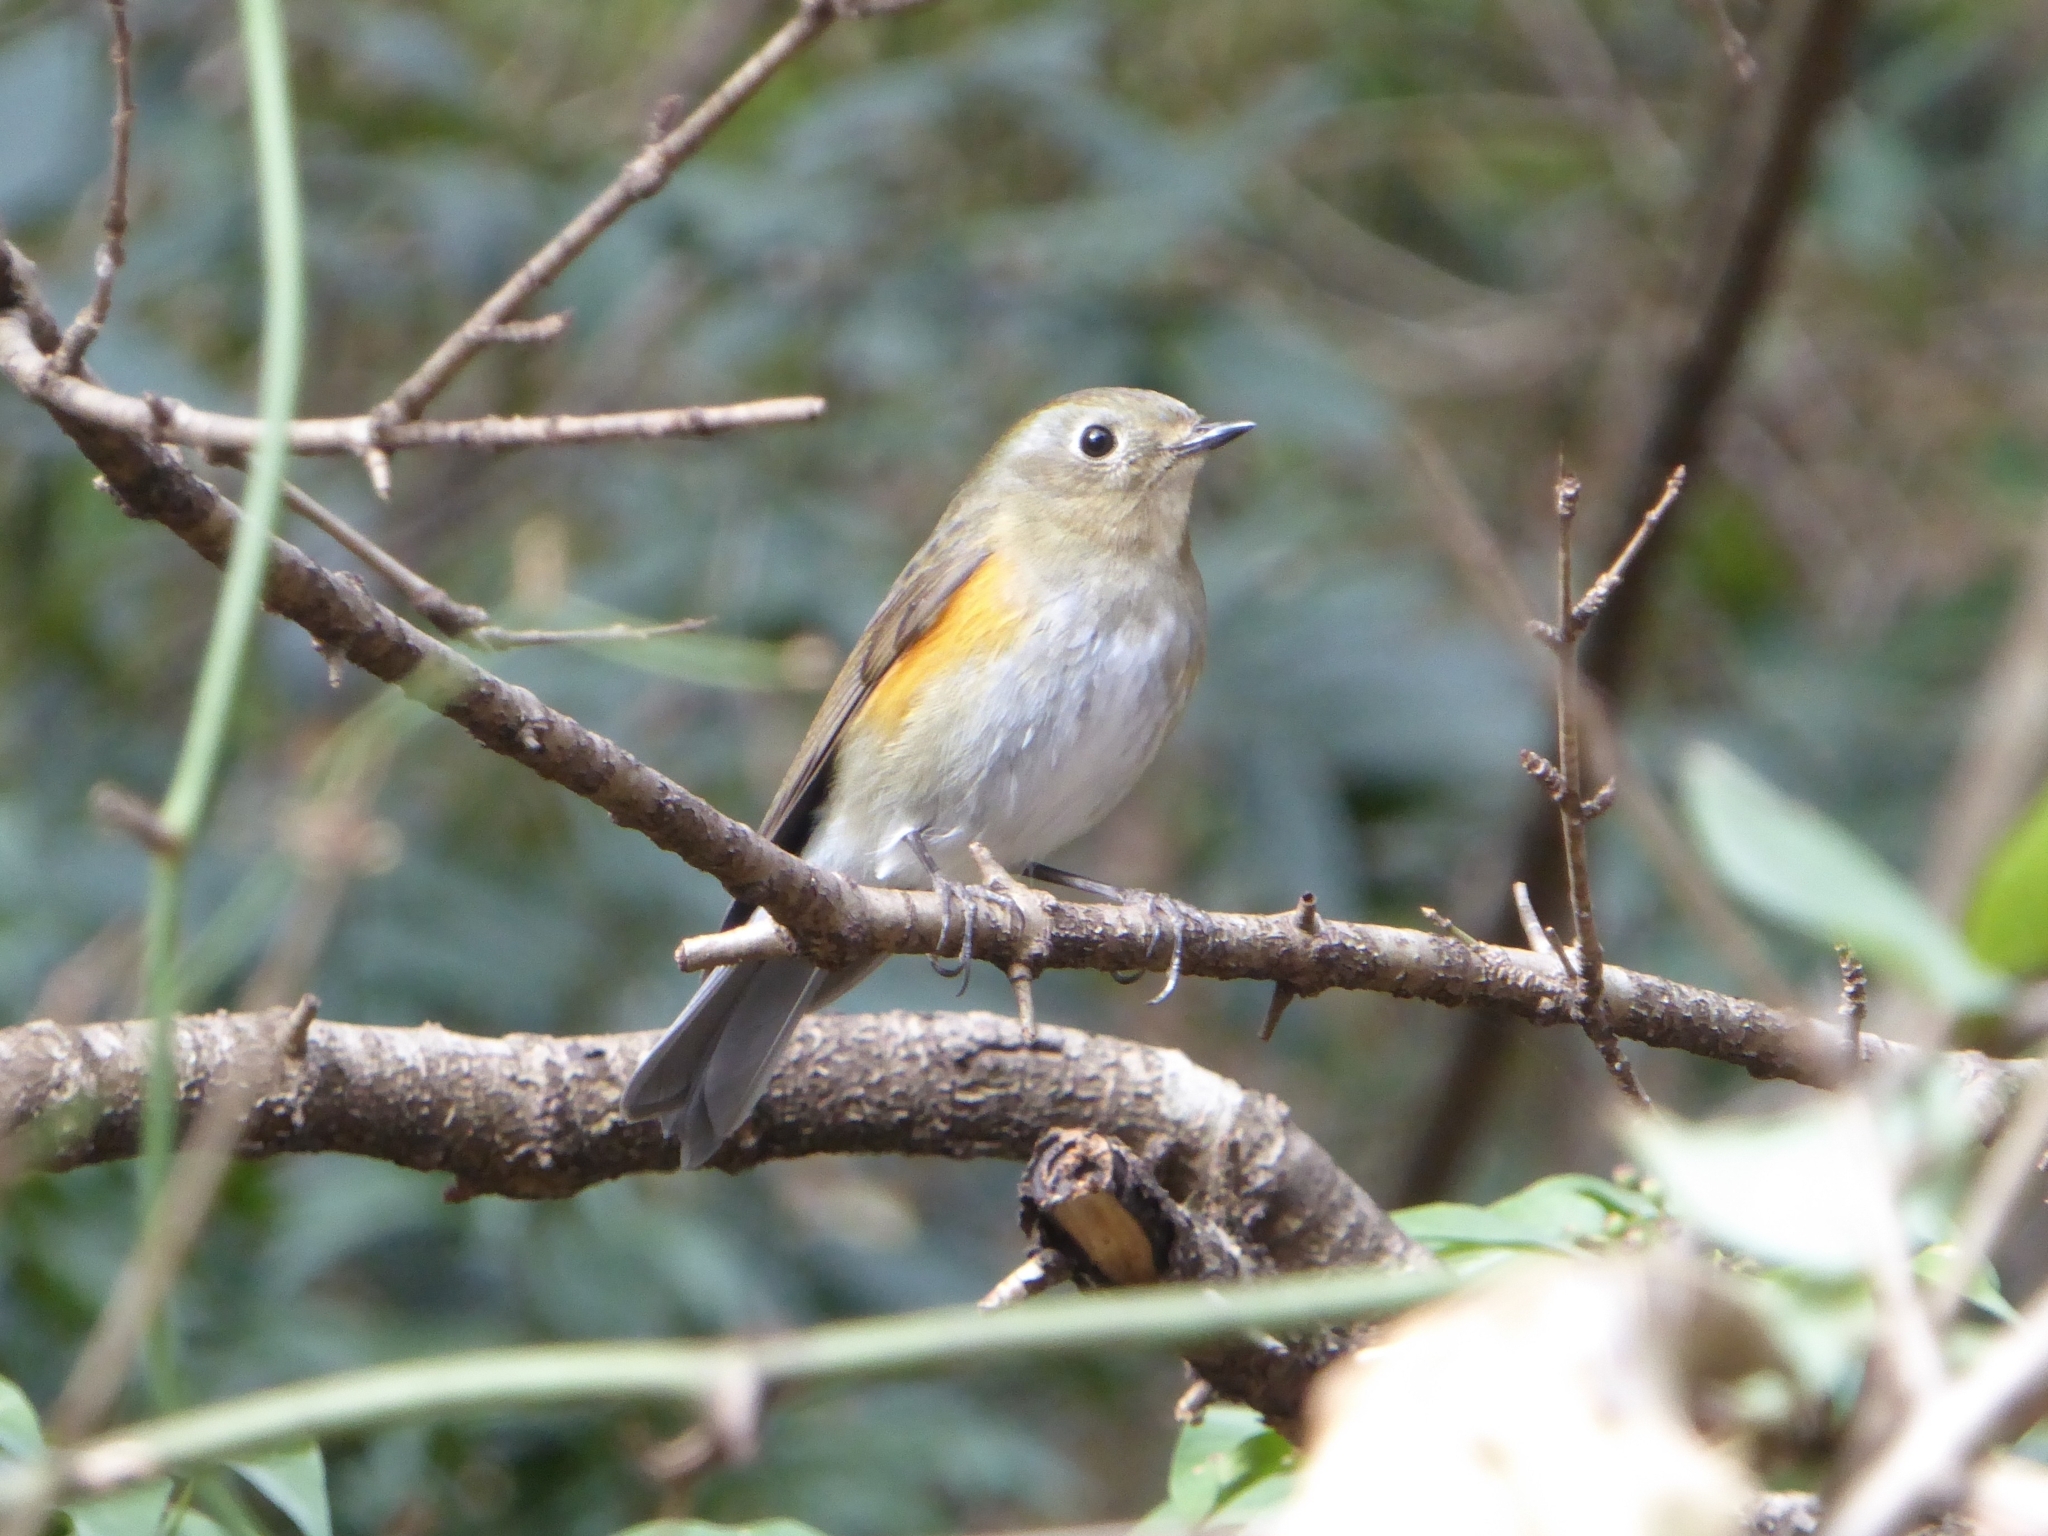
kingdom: Animalia
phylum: Chordata
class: Aves
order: Passeriformes
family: Muscicapidae
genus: Tarsiger
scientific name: Tarsiger rufilatus
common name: Himalayan bluetail
